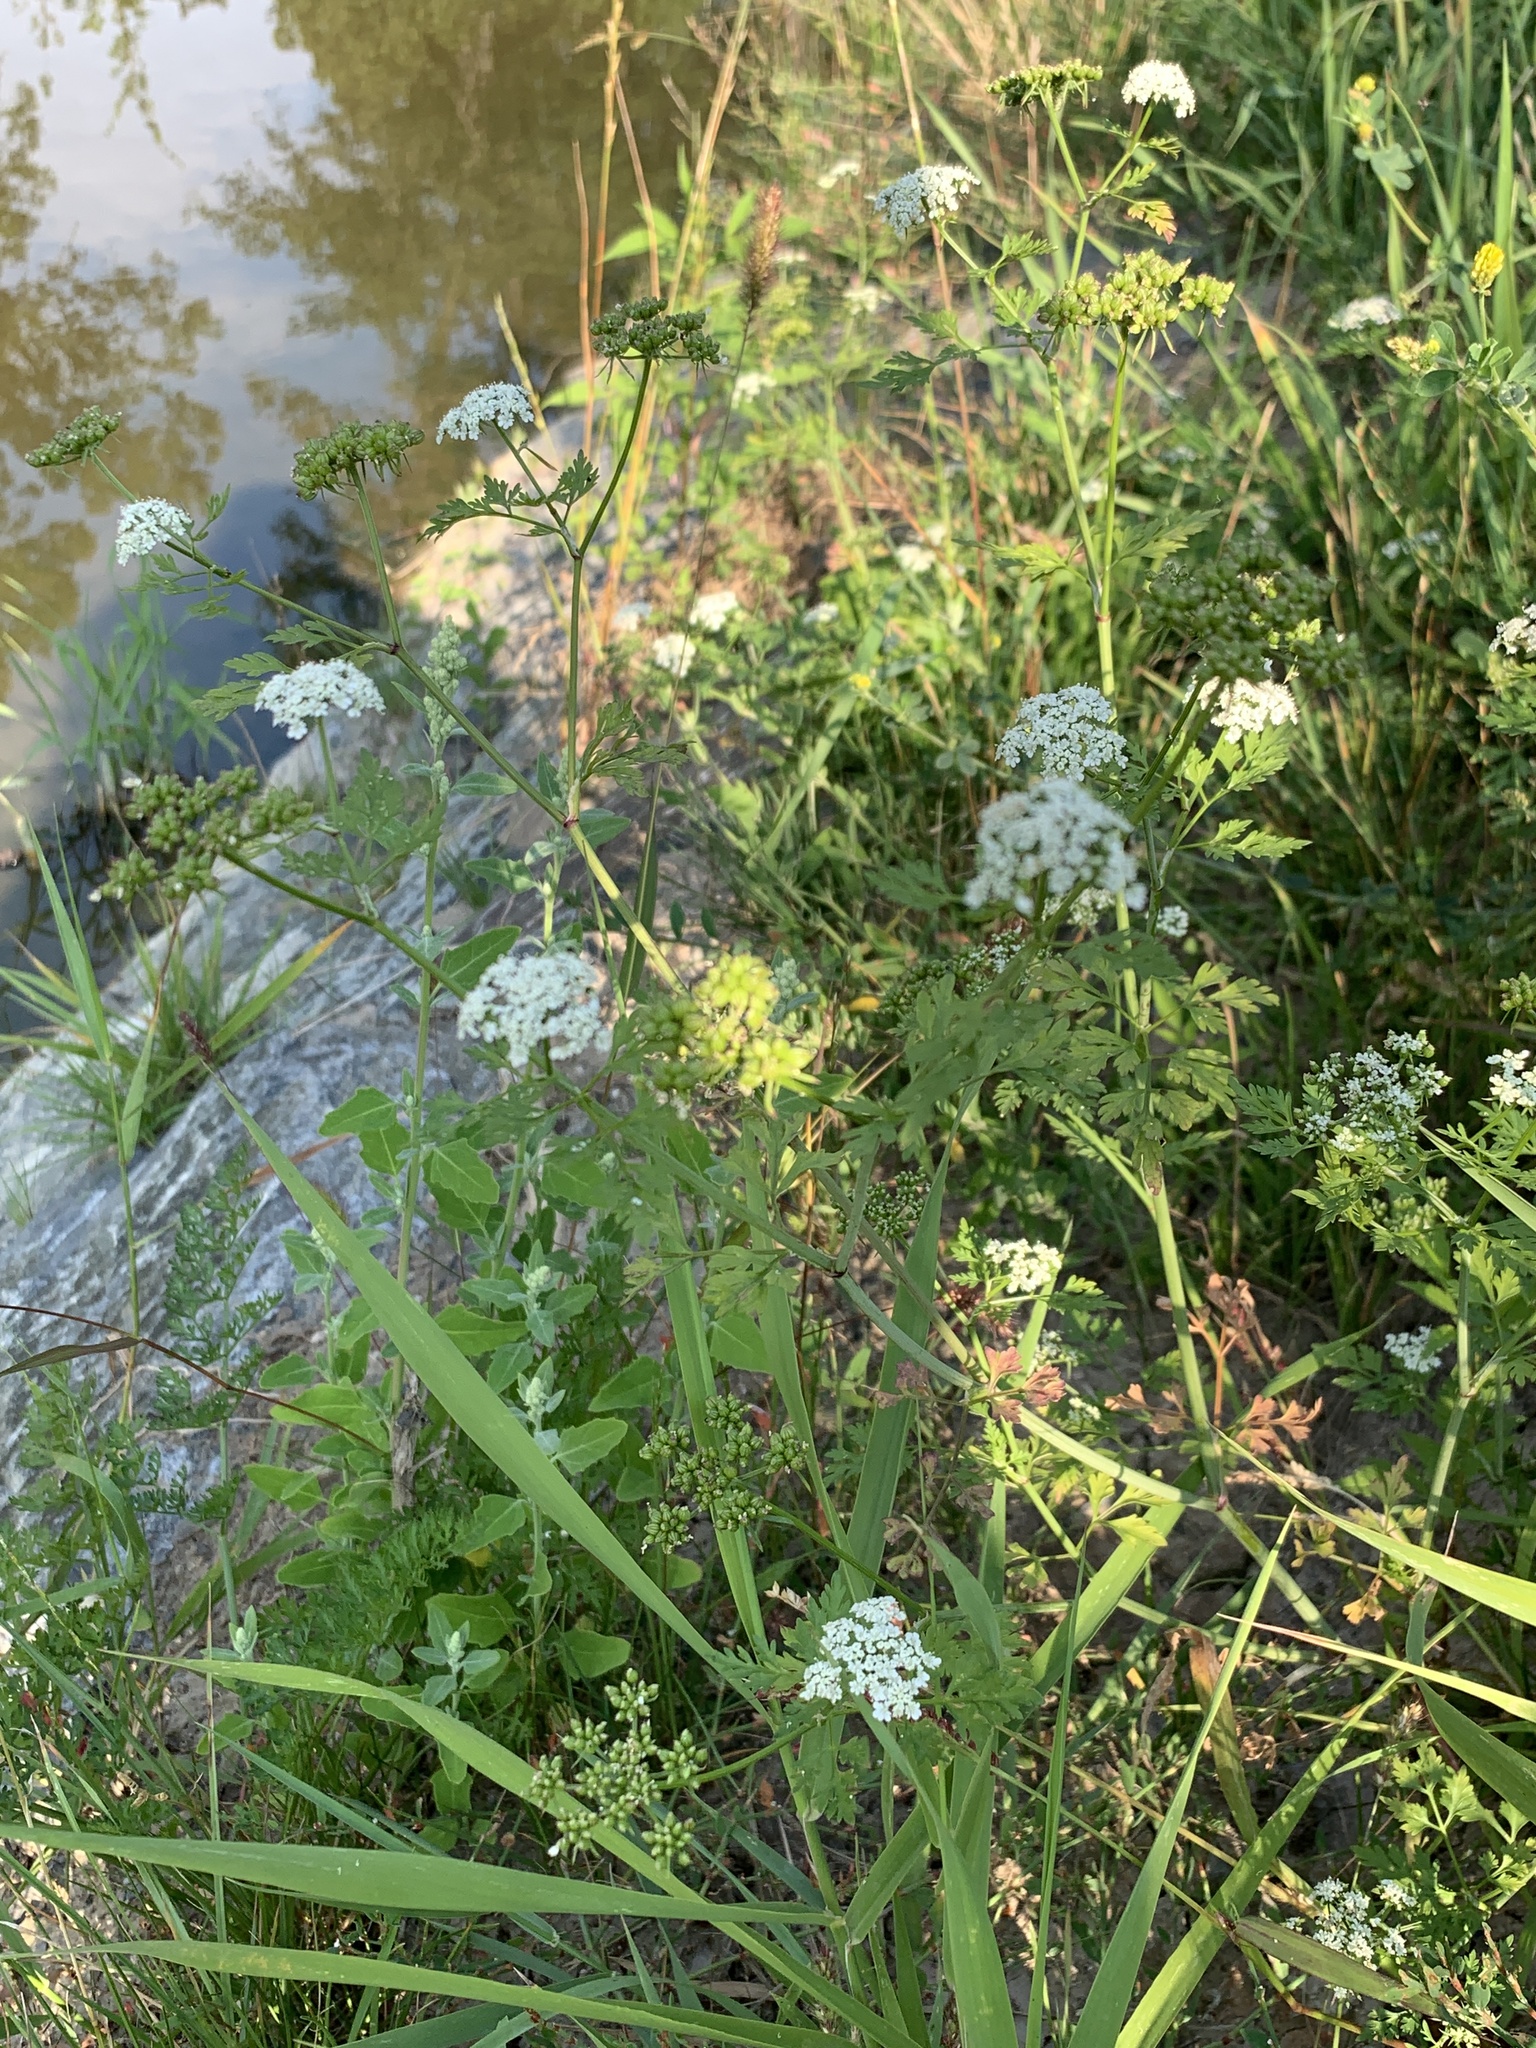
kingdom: Plantae
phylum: Tracheophyta
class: Magnoliopsida
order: Apiales
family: Apiaceae
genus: Aethusa
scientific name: Aethusa cynapium
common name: Fool's parsley
